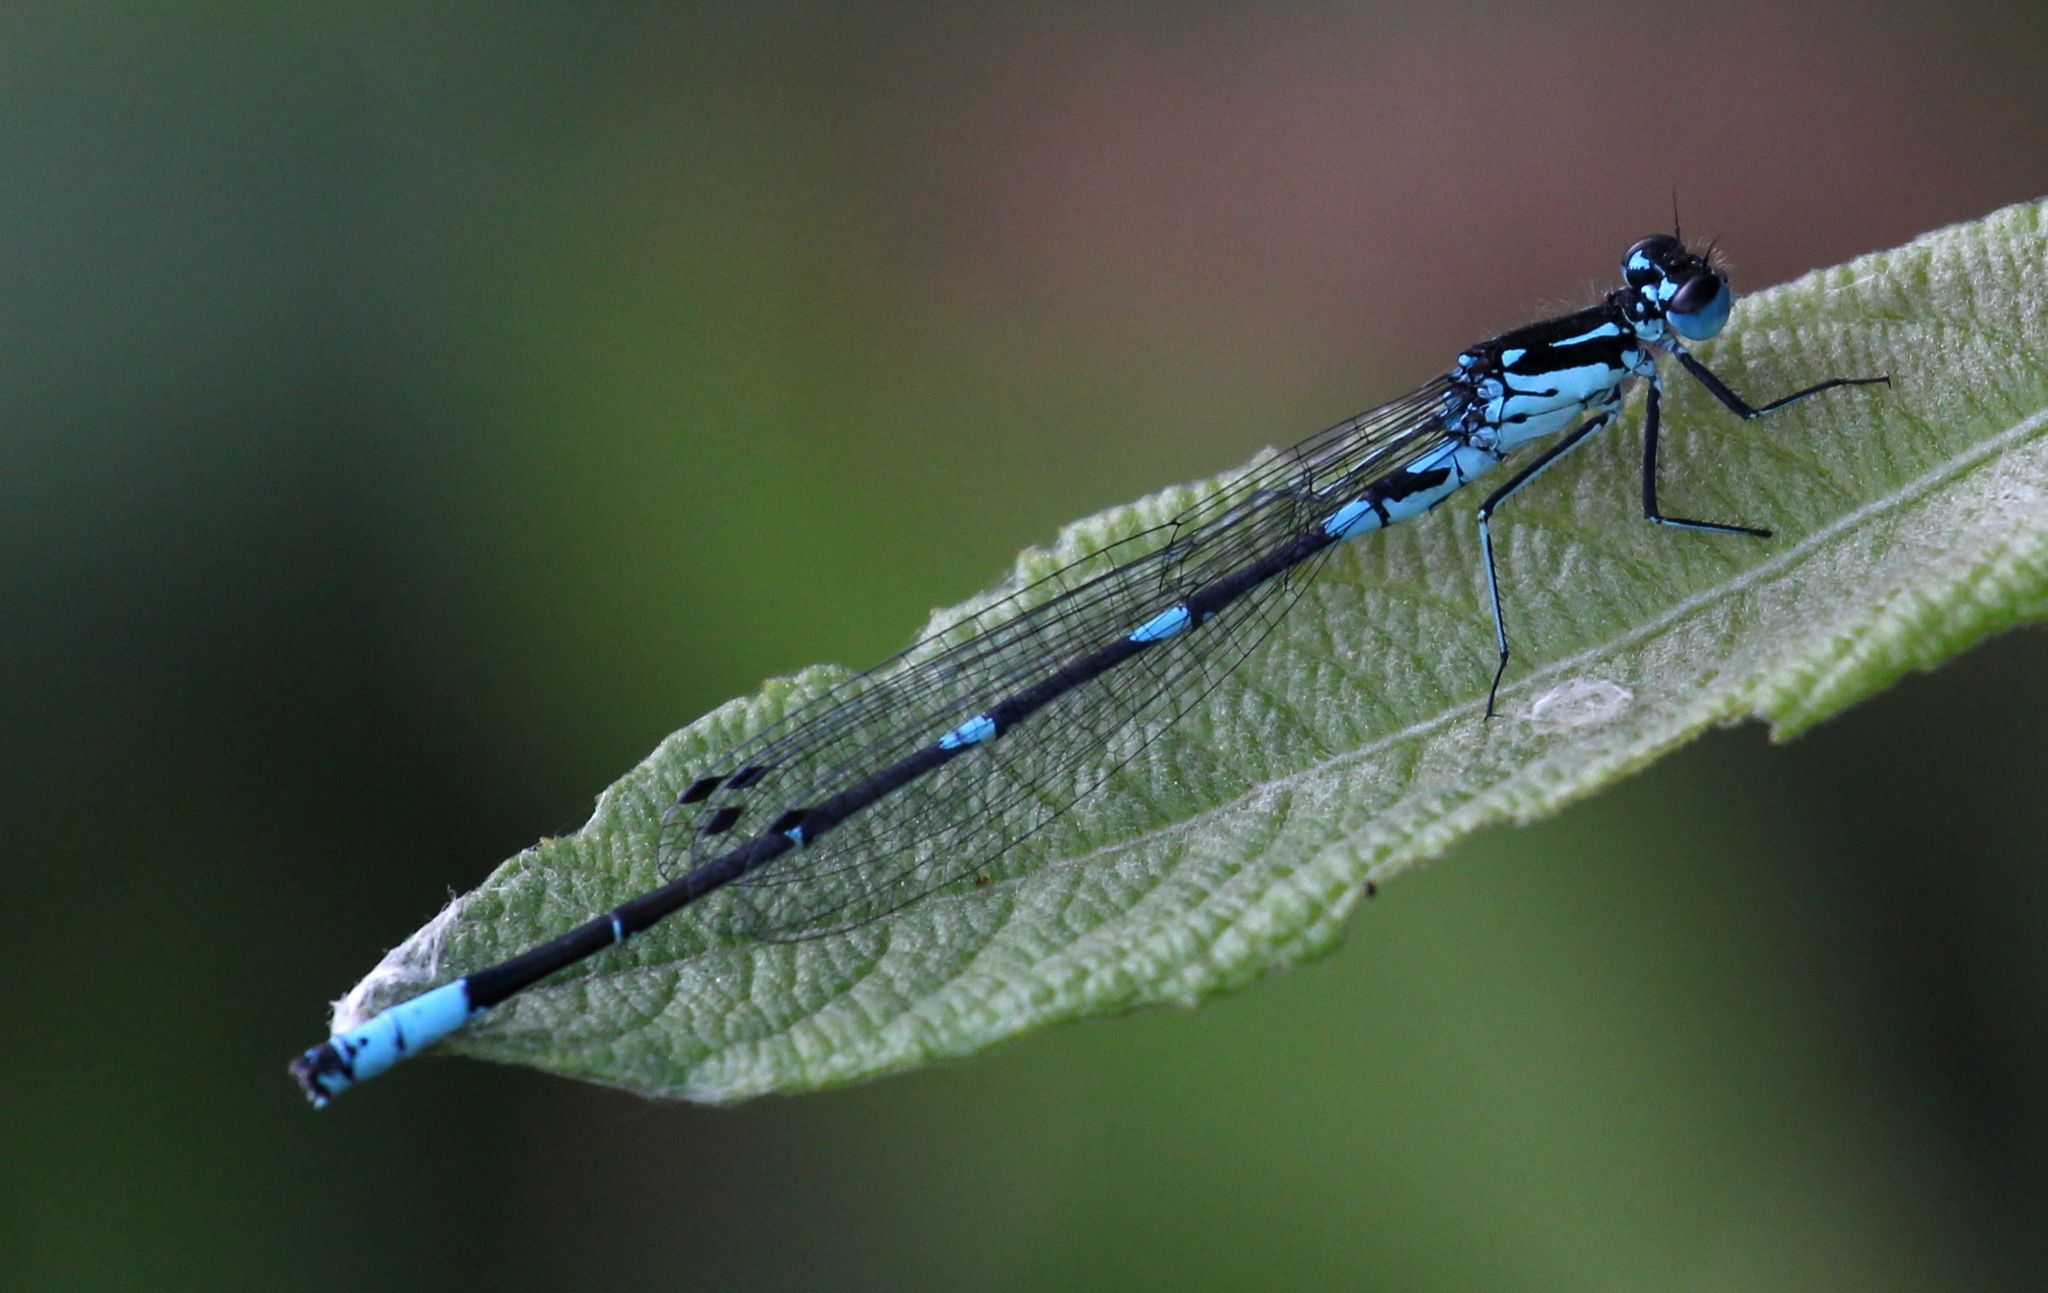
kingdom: Animalia
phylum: Arthropoda
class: Insecta
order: Odonata
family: Coenagrionidae
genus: Coenagrion
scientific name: Coenagrion pulchellum
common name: Variable bluet
